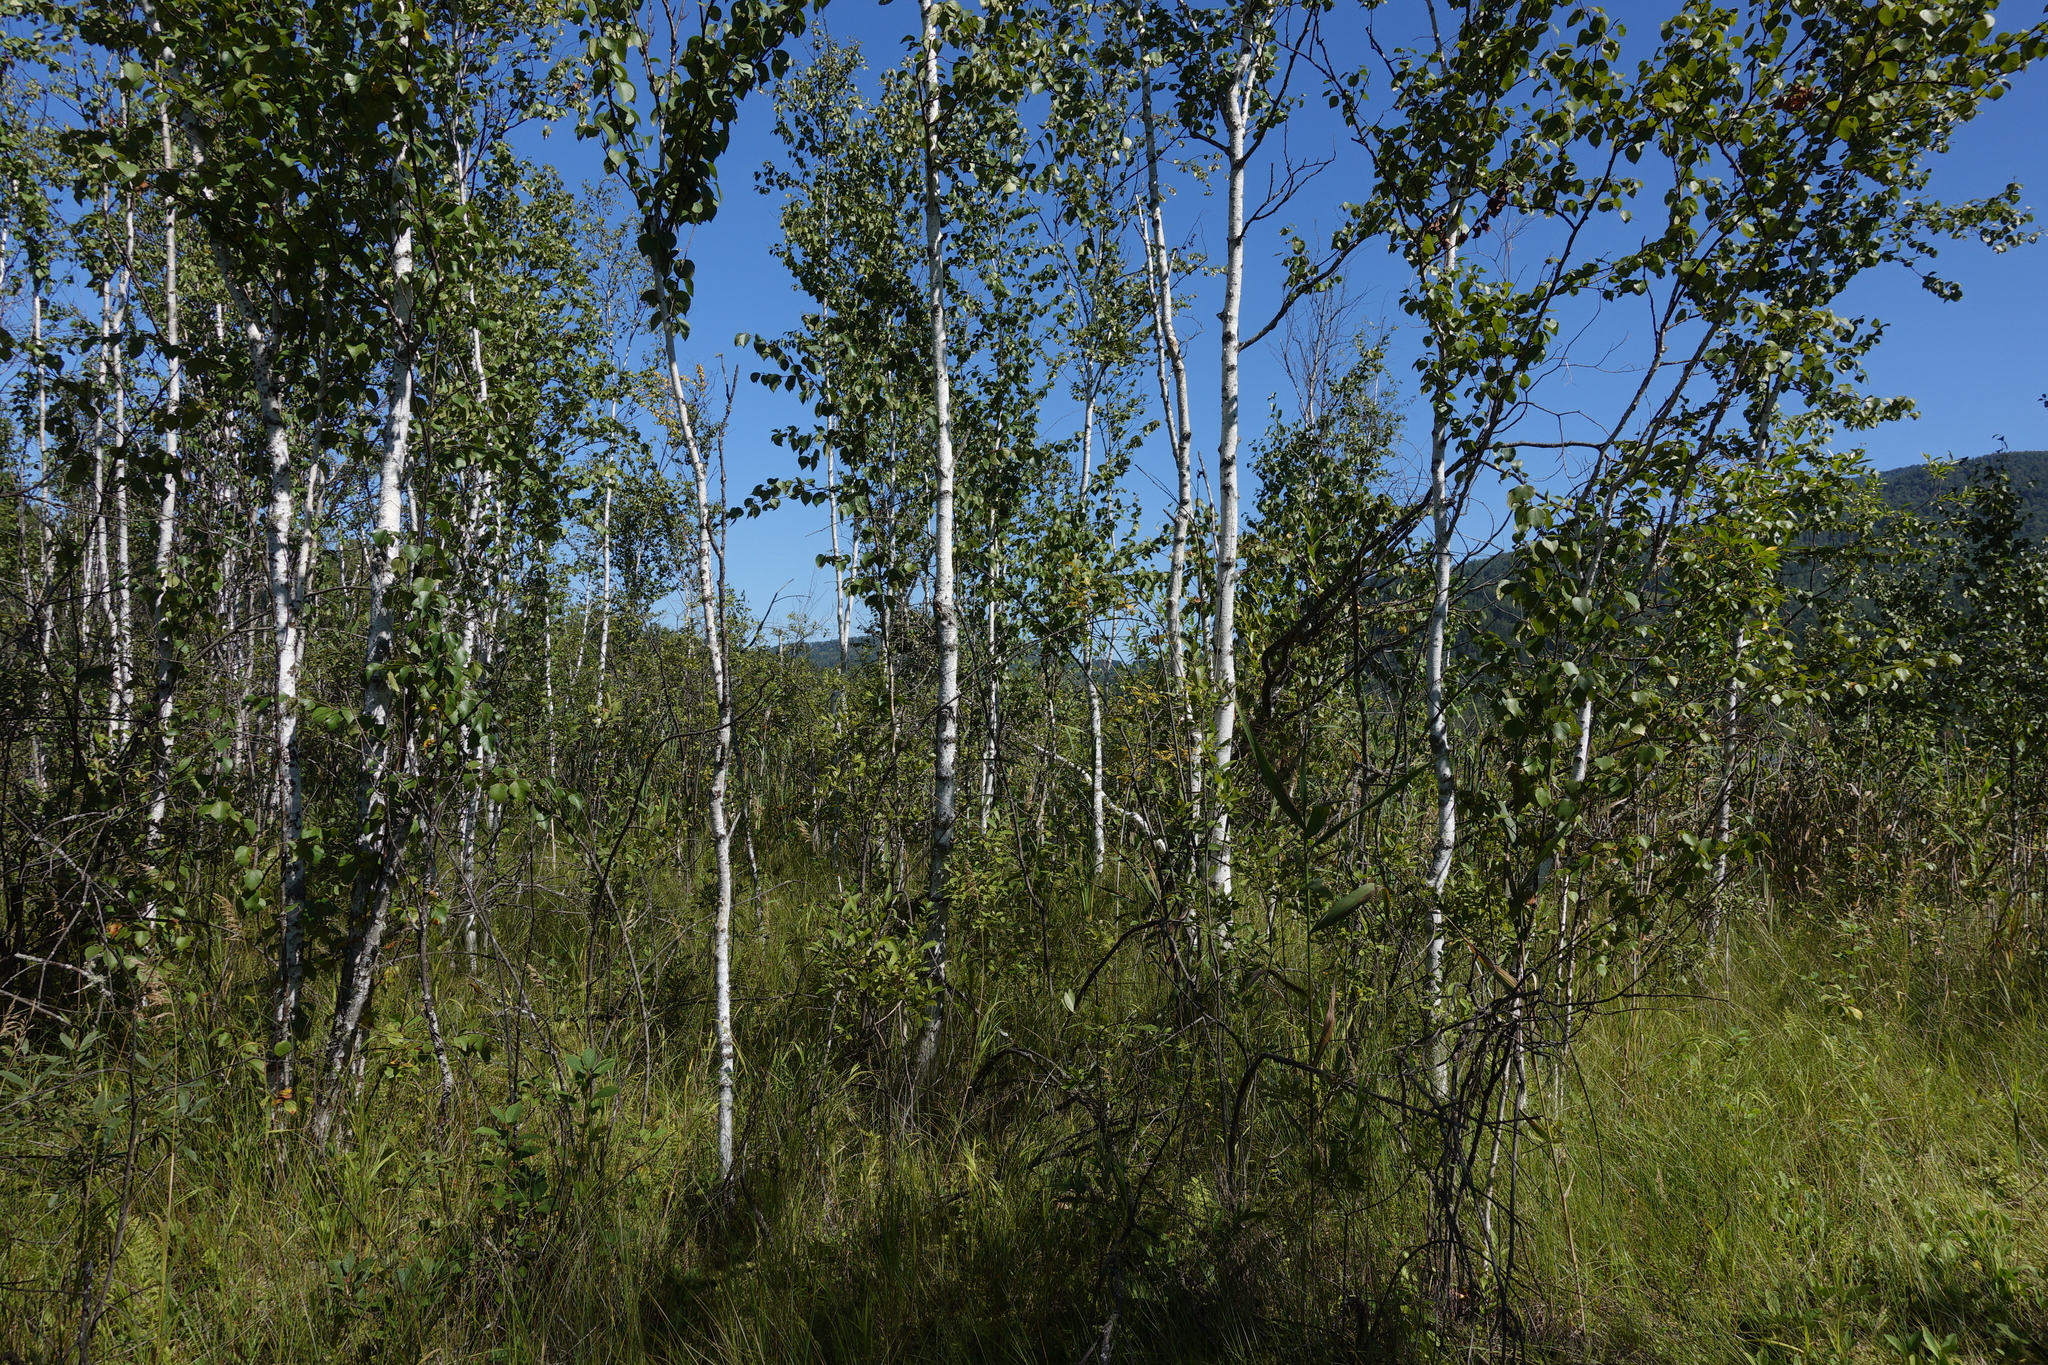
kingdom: Plantae
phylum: Tracheophyta
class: Magnoliopsida
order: Fagales
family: Betulaceae
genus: Betula
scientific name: Betula pubescens
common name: Downy birch
